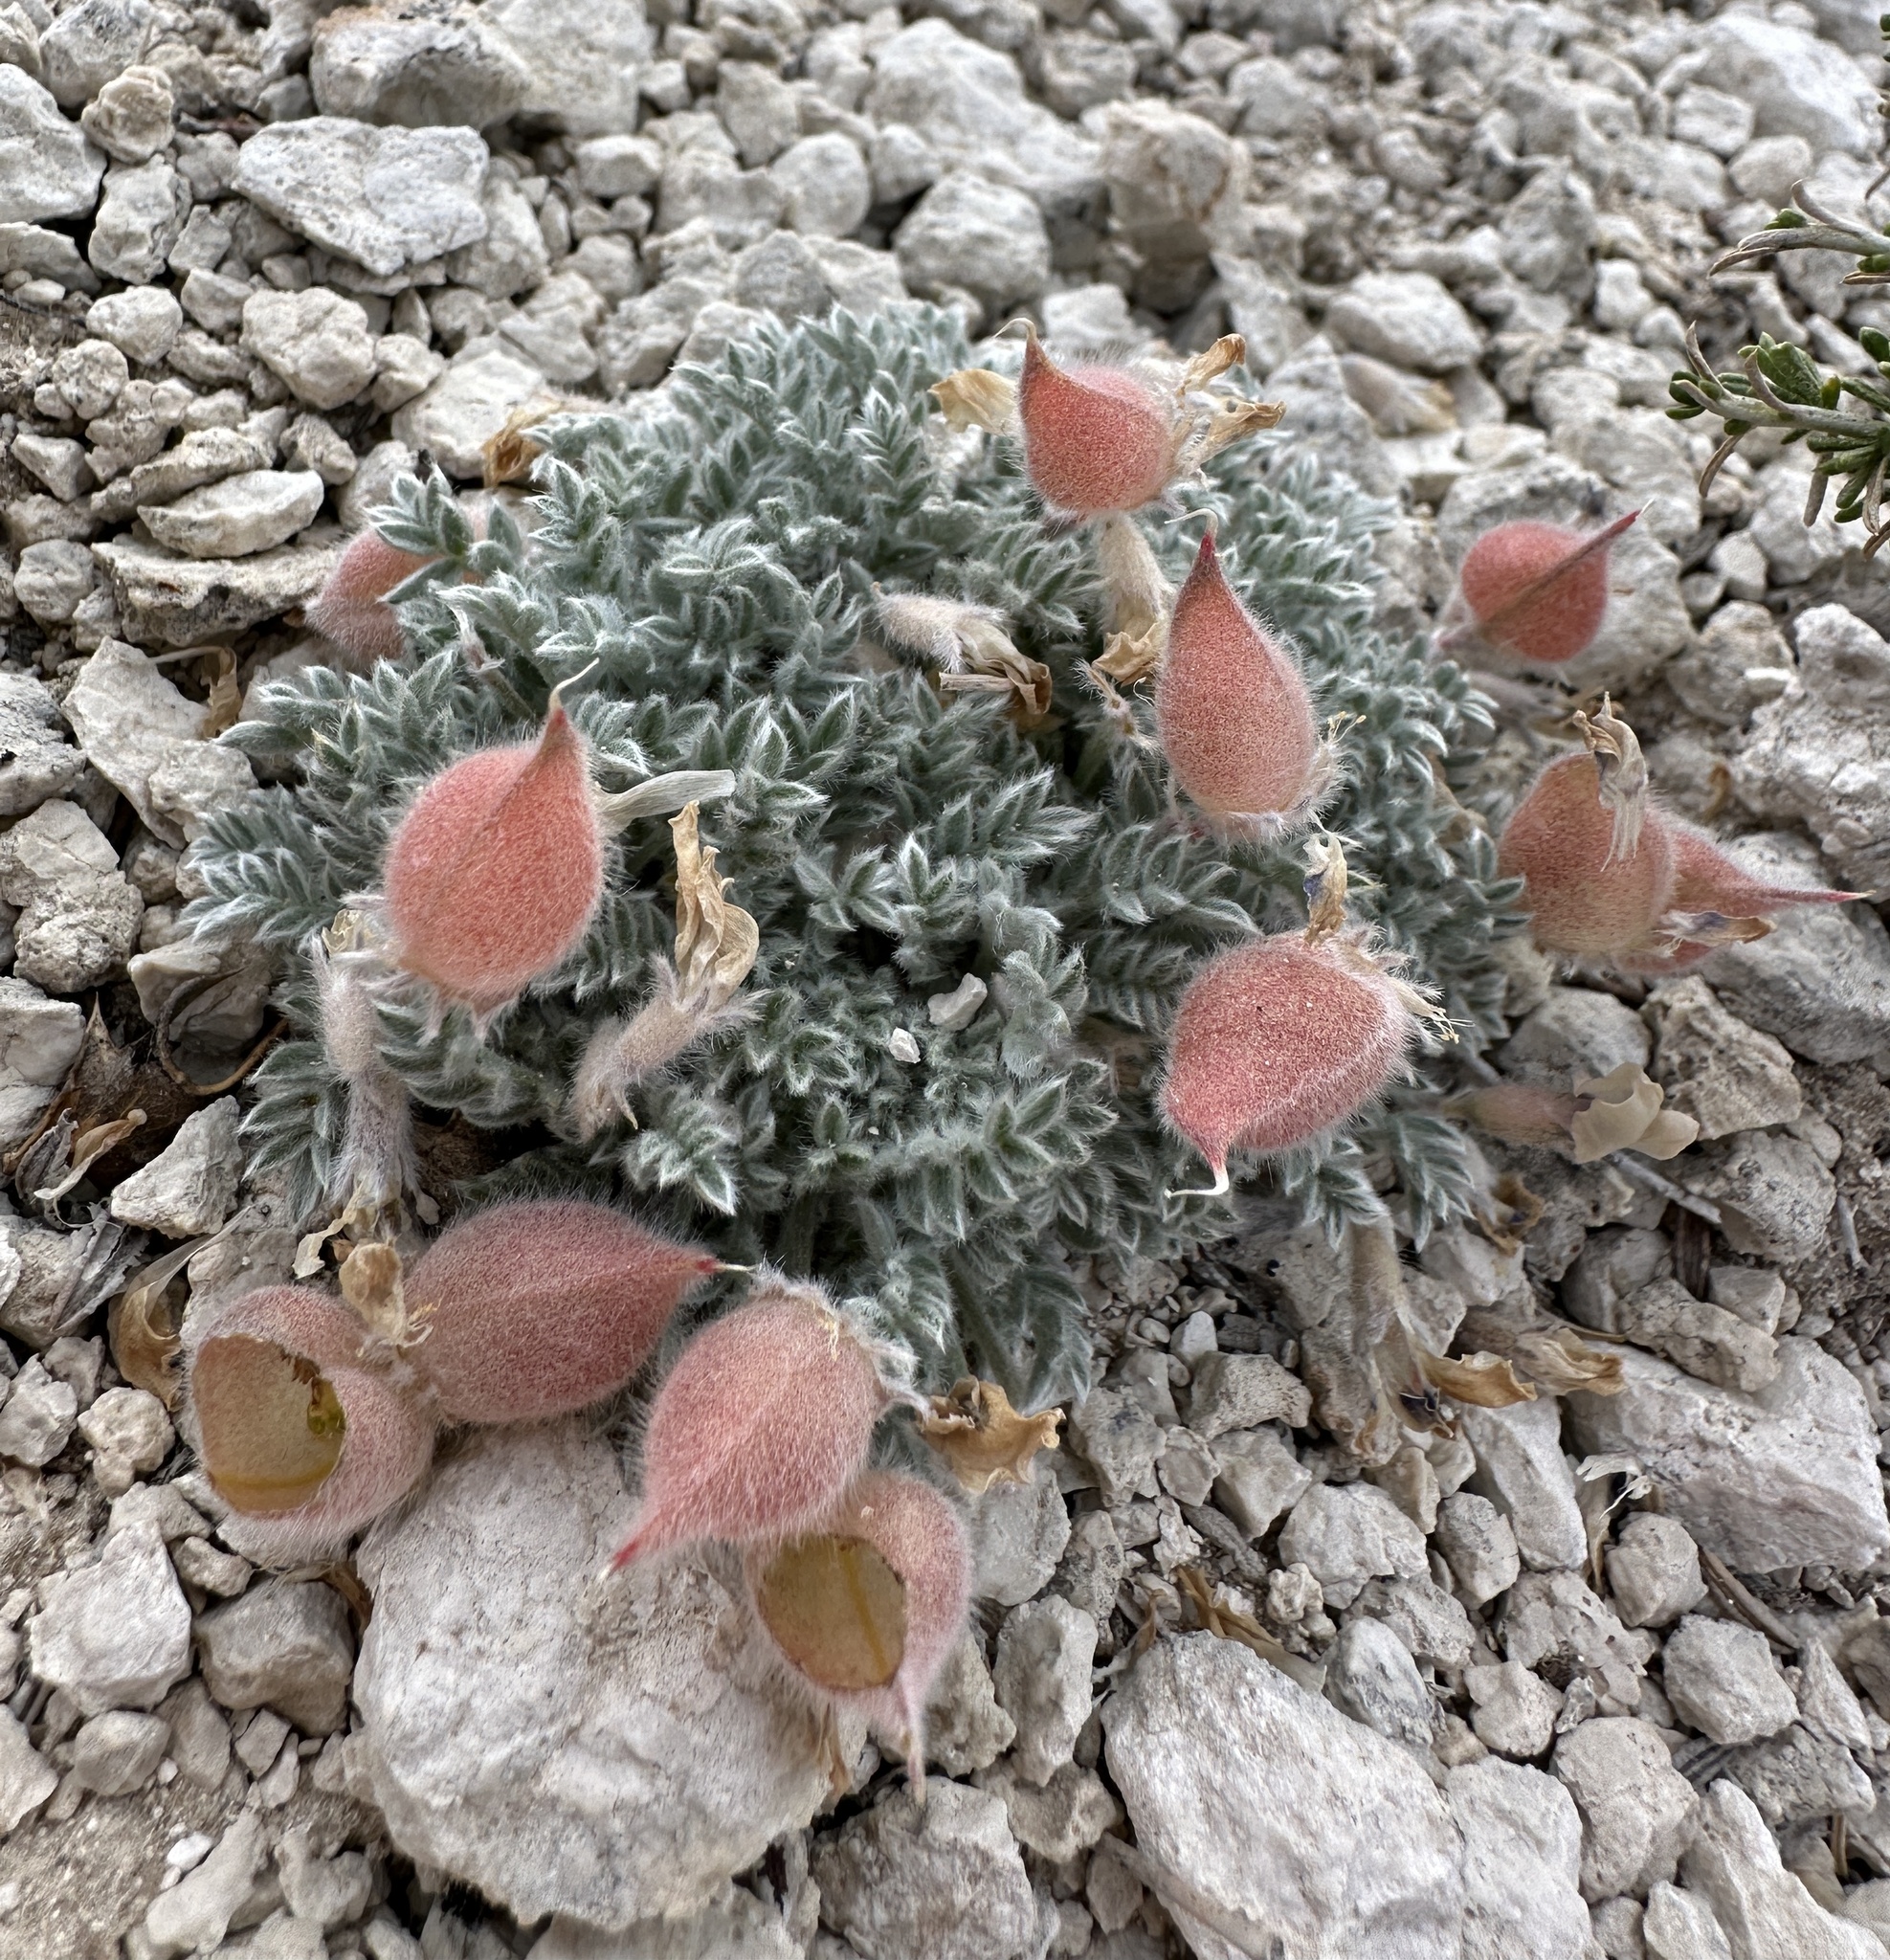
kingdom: Plantae
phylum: Tracheophyta
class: Magnoliopsida
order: Fabales
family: Fabaceae
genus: Oxytropis
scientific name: Oxytropis oreophila
